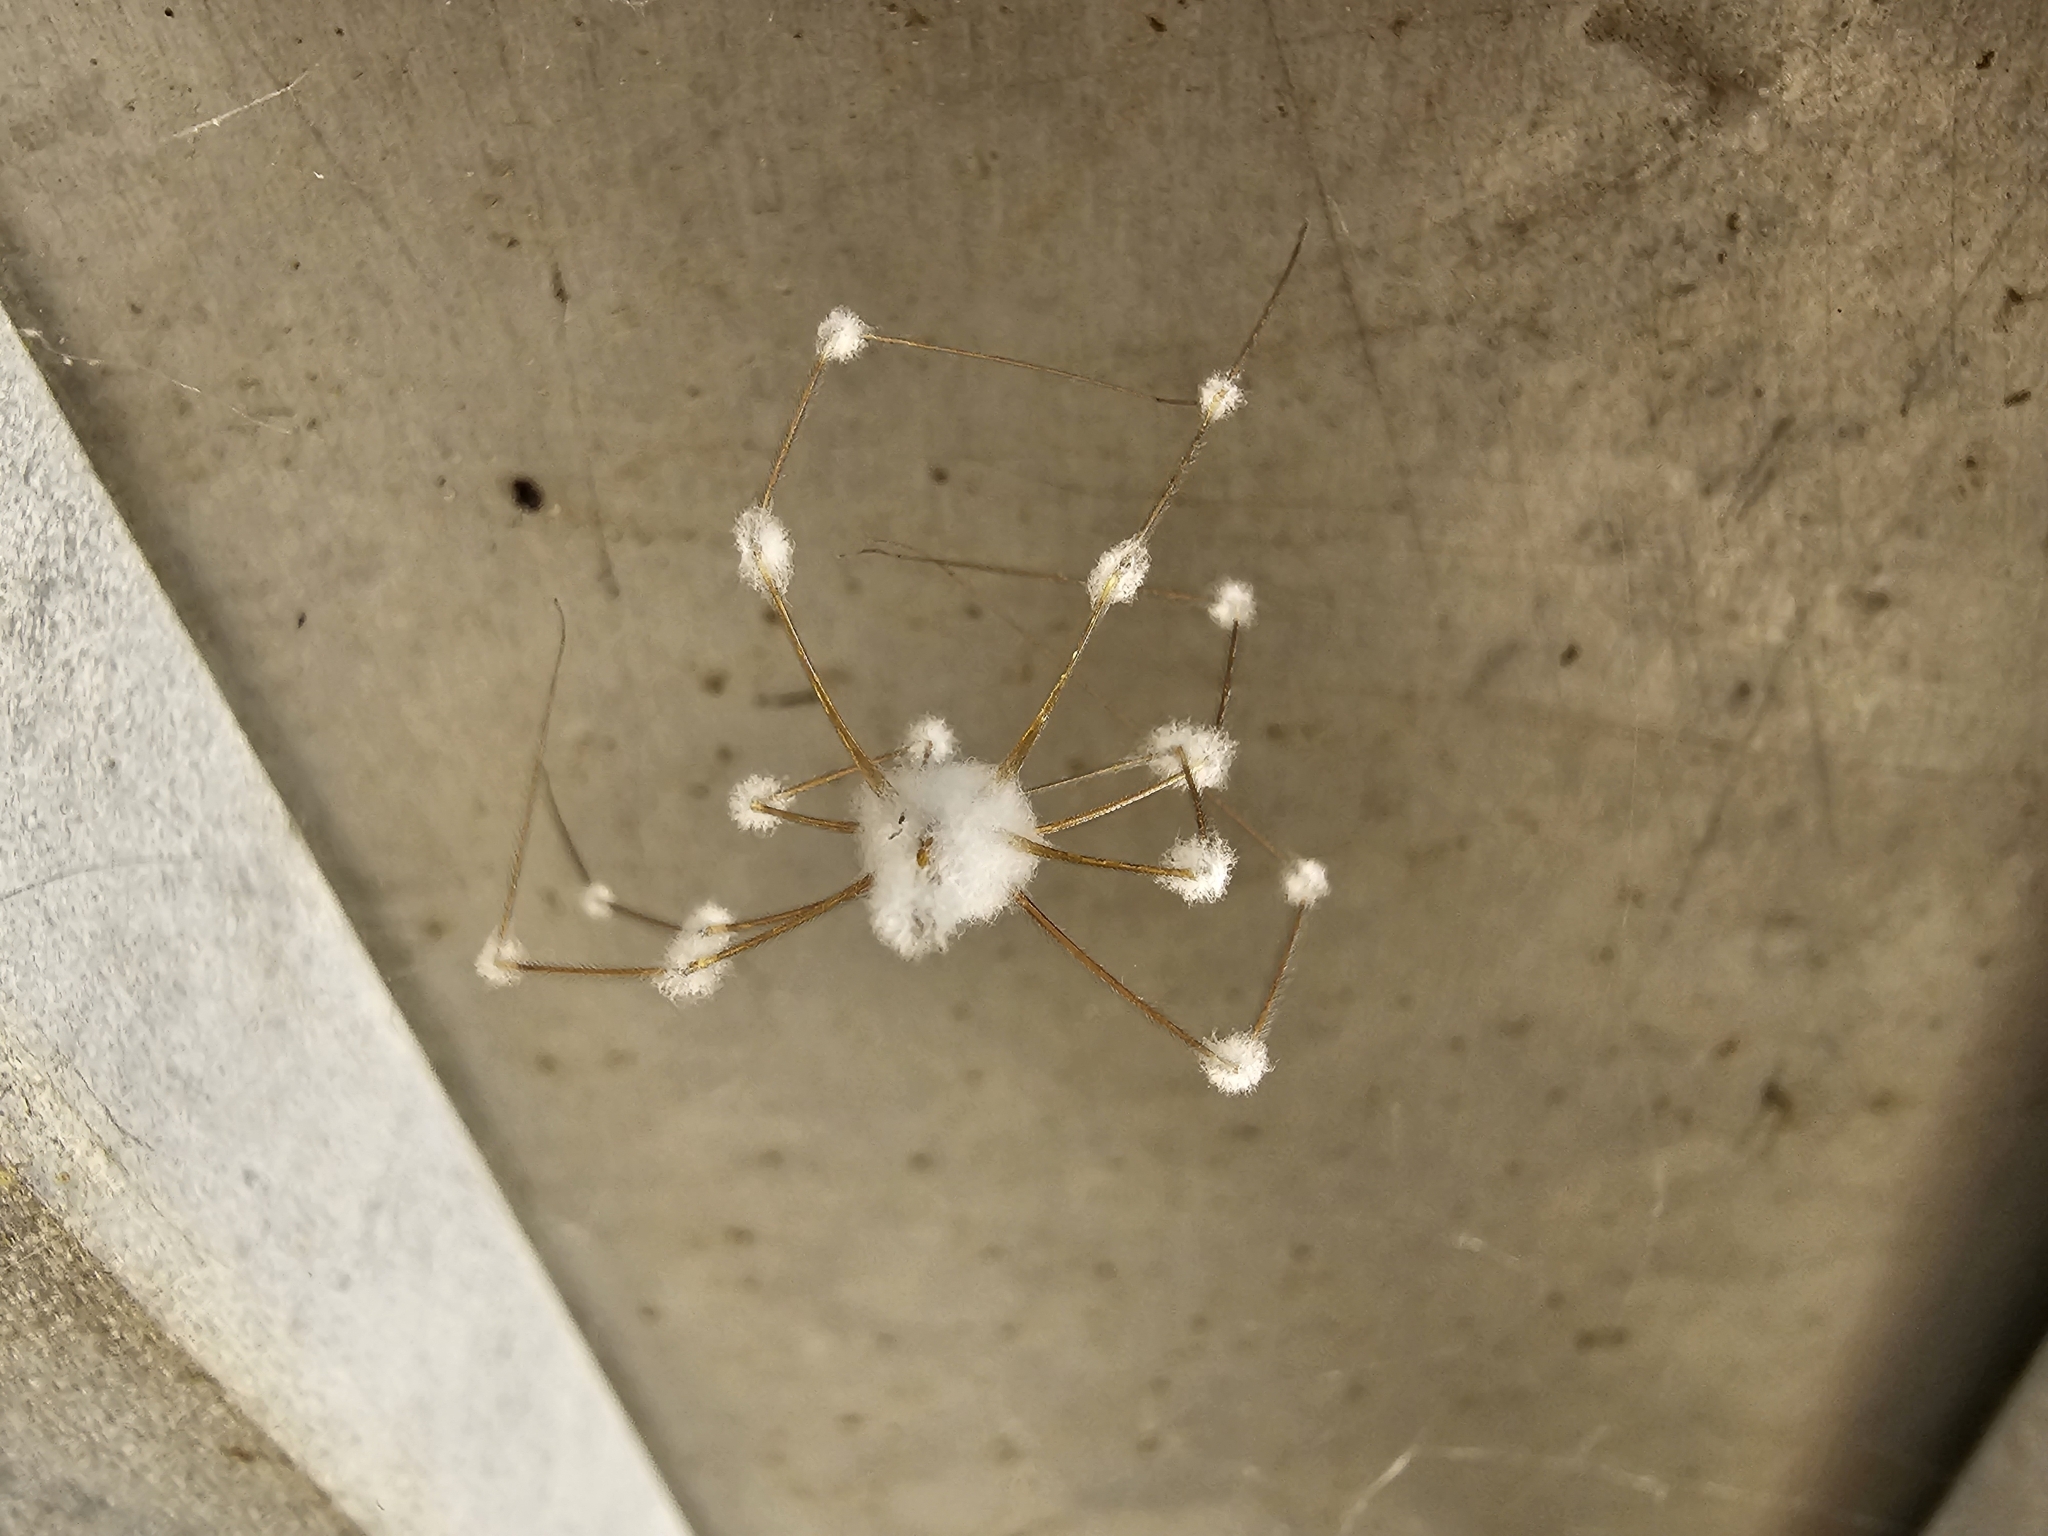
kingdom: Fungi
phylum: Ascomycota
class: Sordariomycetes
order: Hypocreales
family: Cordycipitaceae
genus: Lecanicillium
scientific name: Lecanicillium tenuipes
